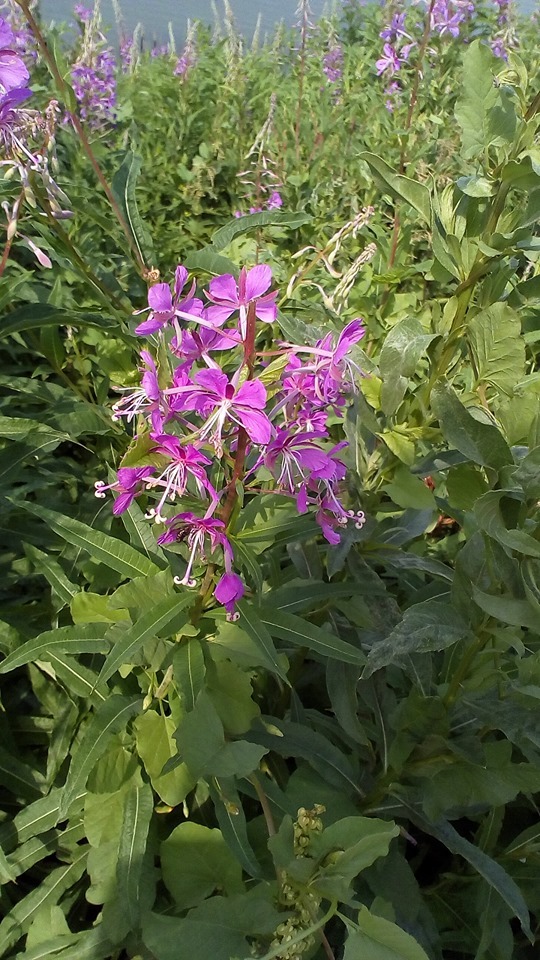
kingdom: Plantae
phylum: Tracheophyta
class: Magnoliopsida
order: Myrtales
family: Onagraceae
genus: Chamaenerion
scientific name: Chamaenerion angustifolium
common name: Fireweed
